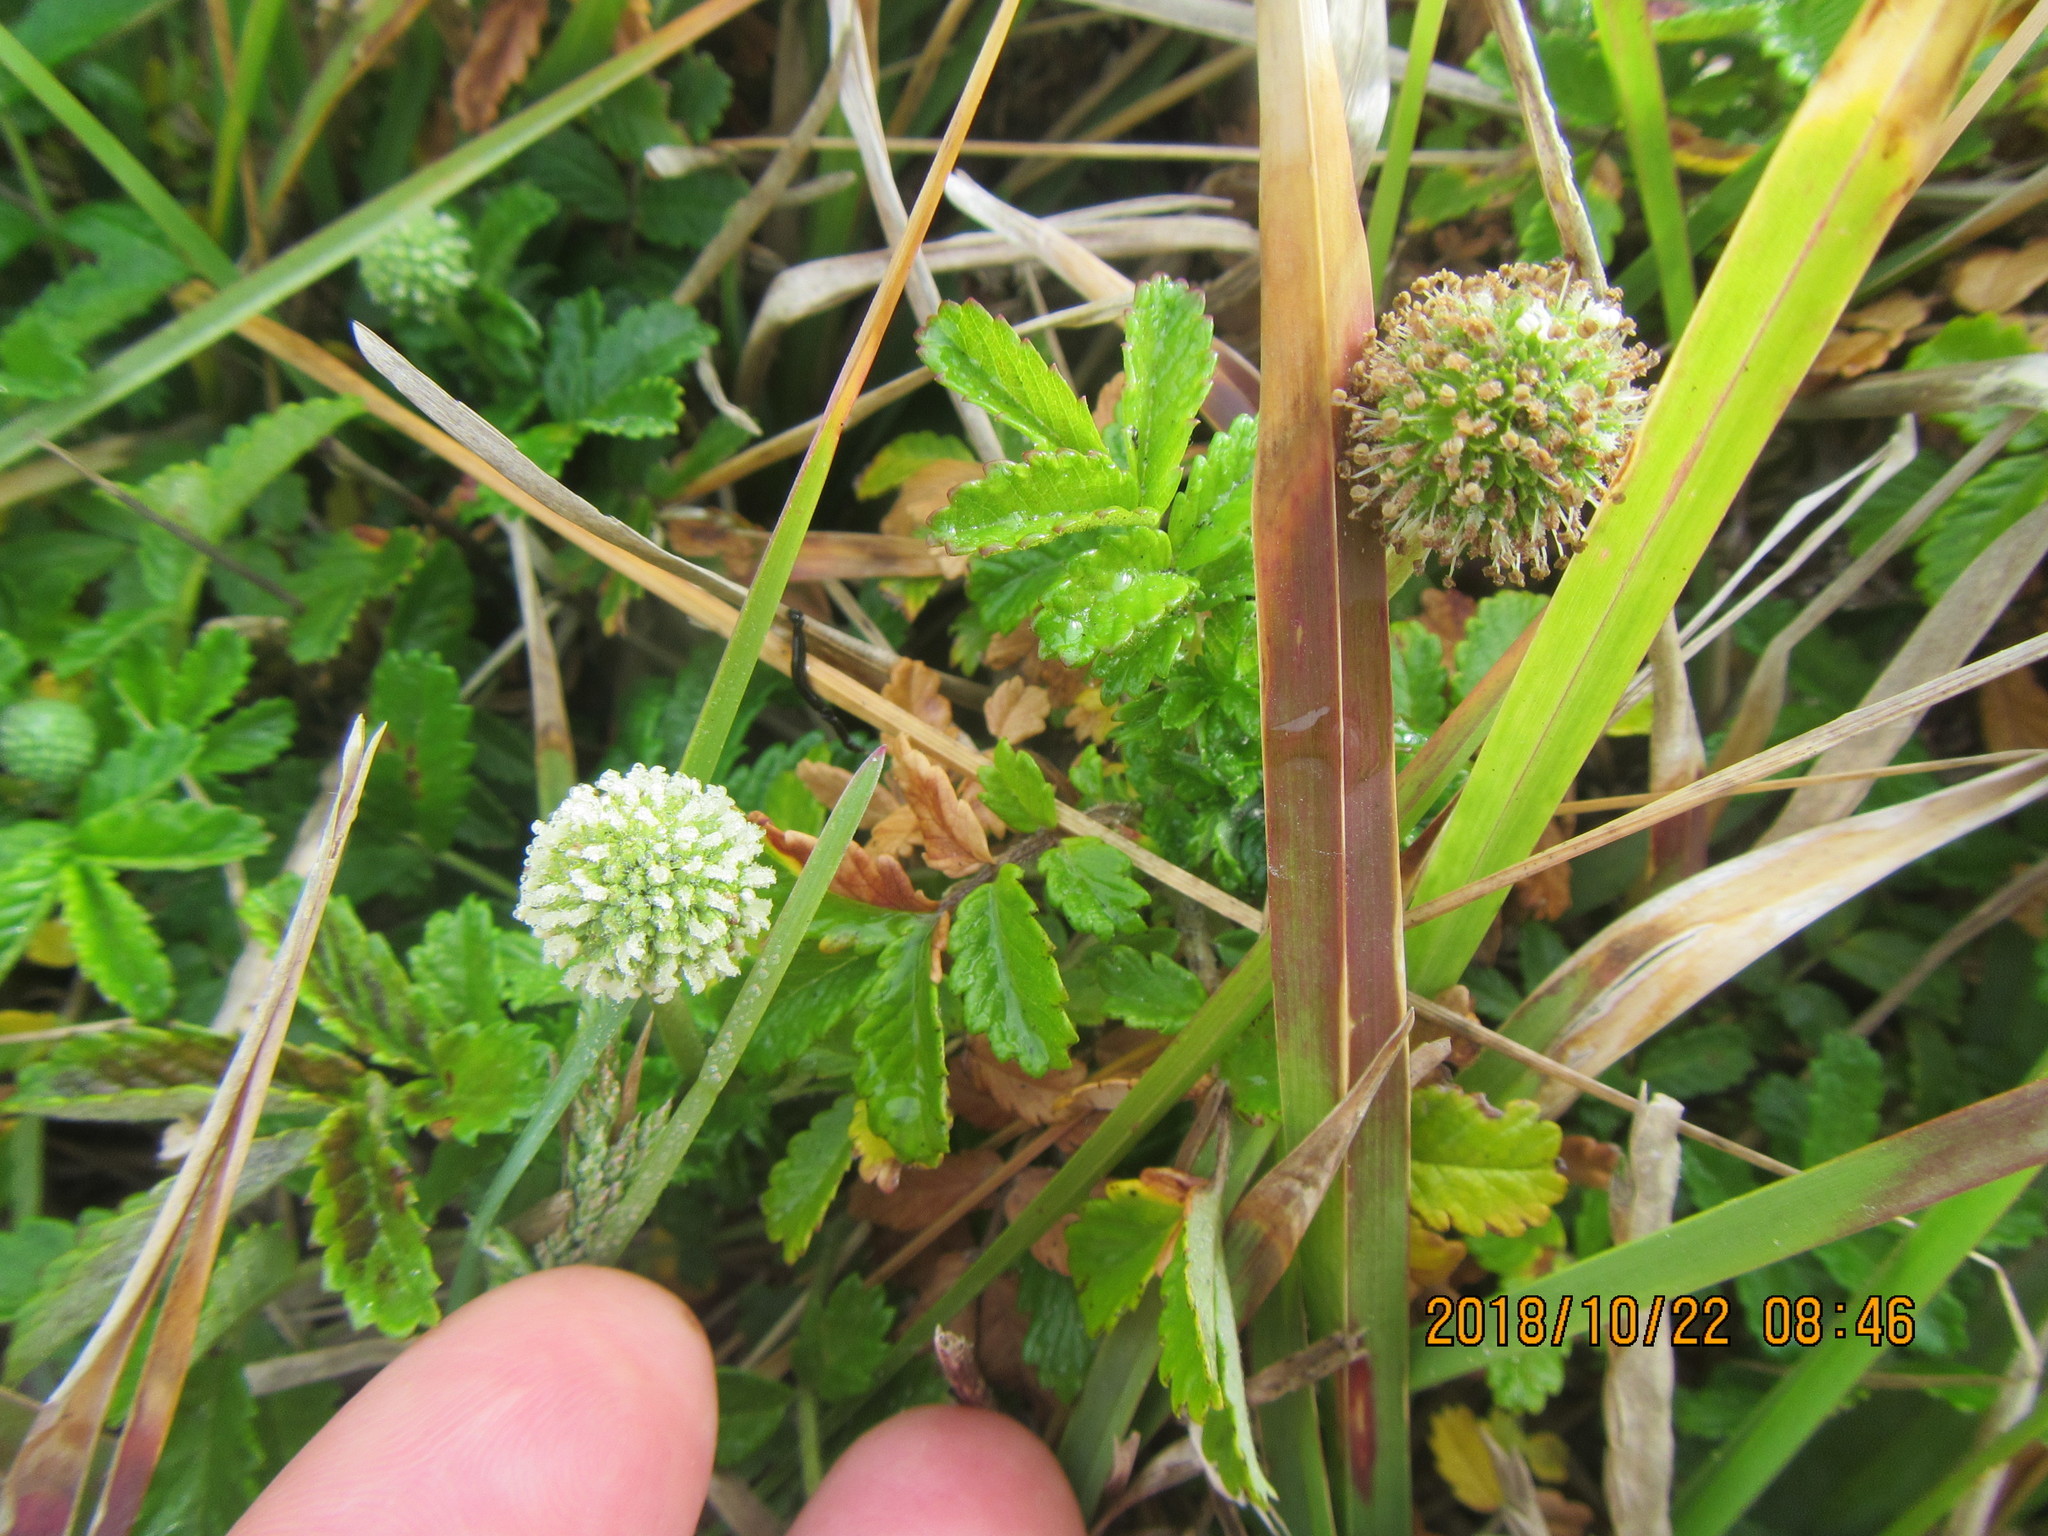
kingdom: Plantae
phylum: Tracheophyta
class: Magnoliopsida
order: Rosales
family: Rosaceae
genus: Acaena
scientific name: Acaena novae-zelandiae
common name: Pirri-pirri-bur
